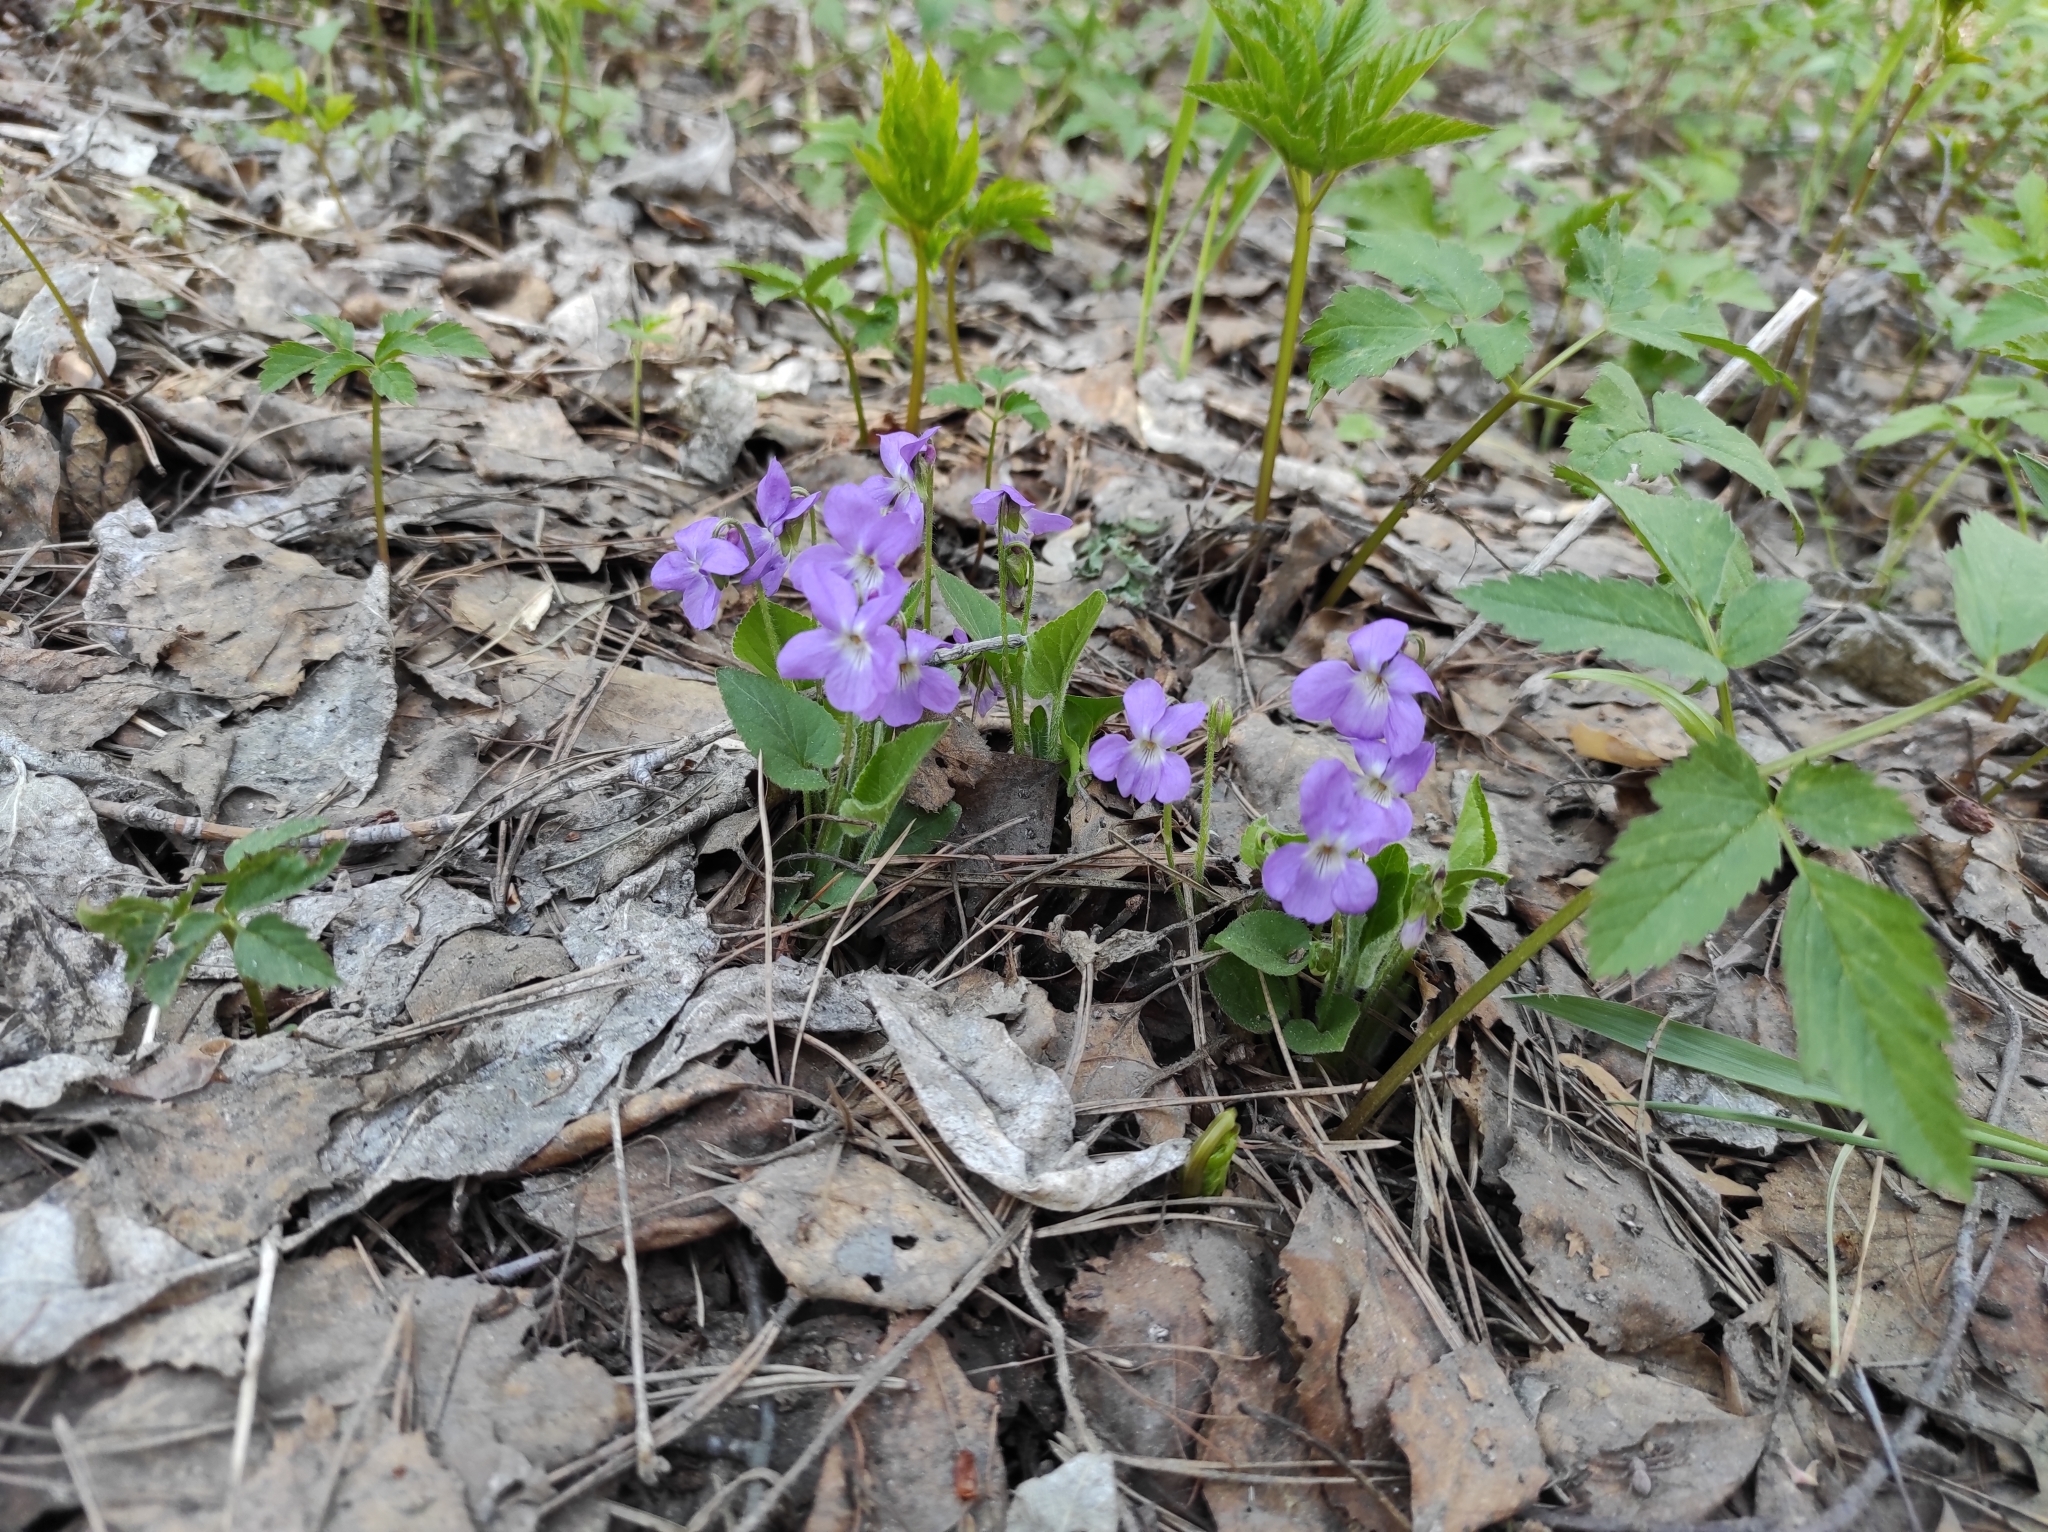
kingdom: Plantae
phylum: Tracheophyta
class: Magnoliopsida
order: Malpighiales
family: Violaceae
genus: Viola
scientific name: Viola hirta
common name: Hairy violet
